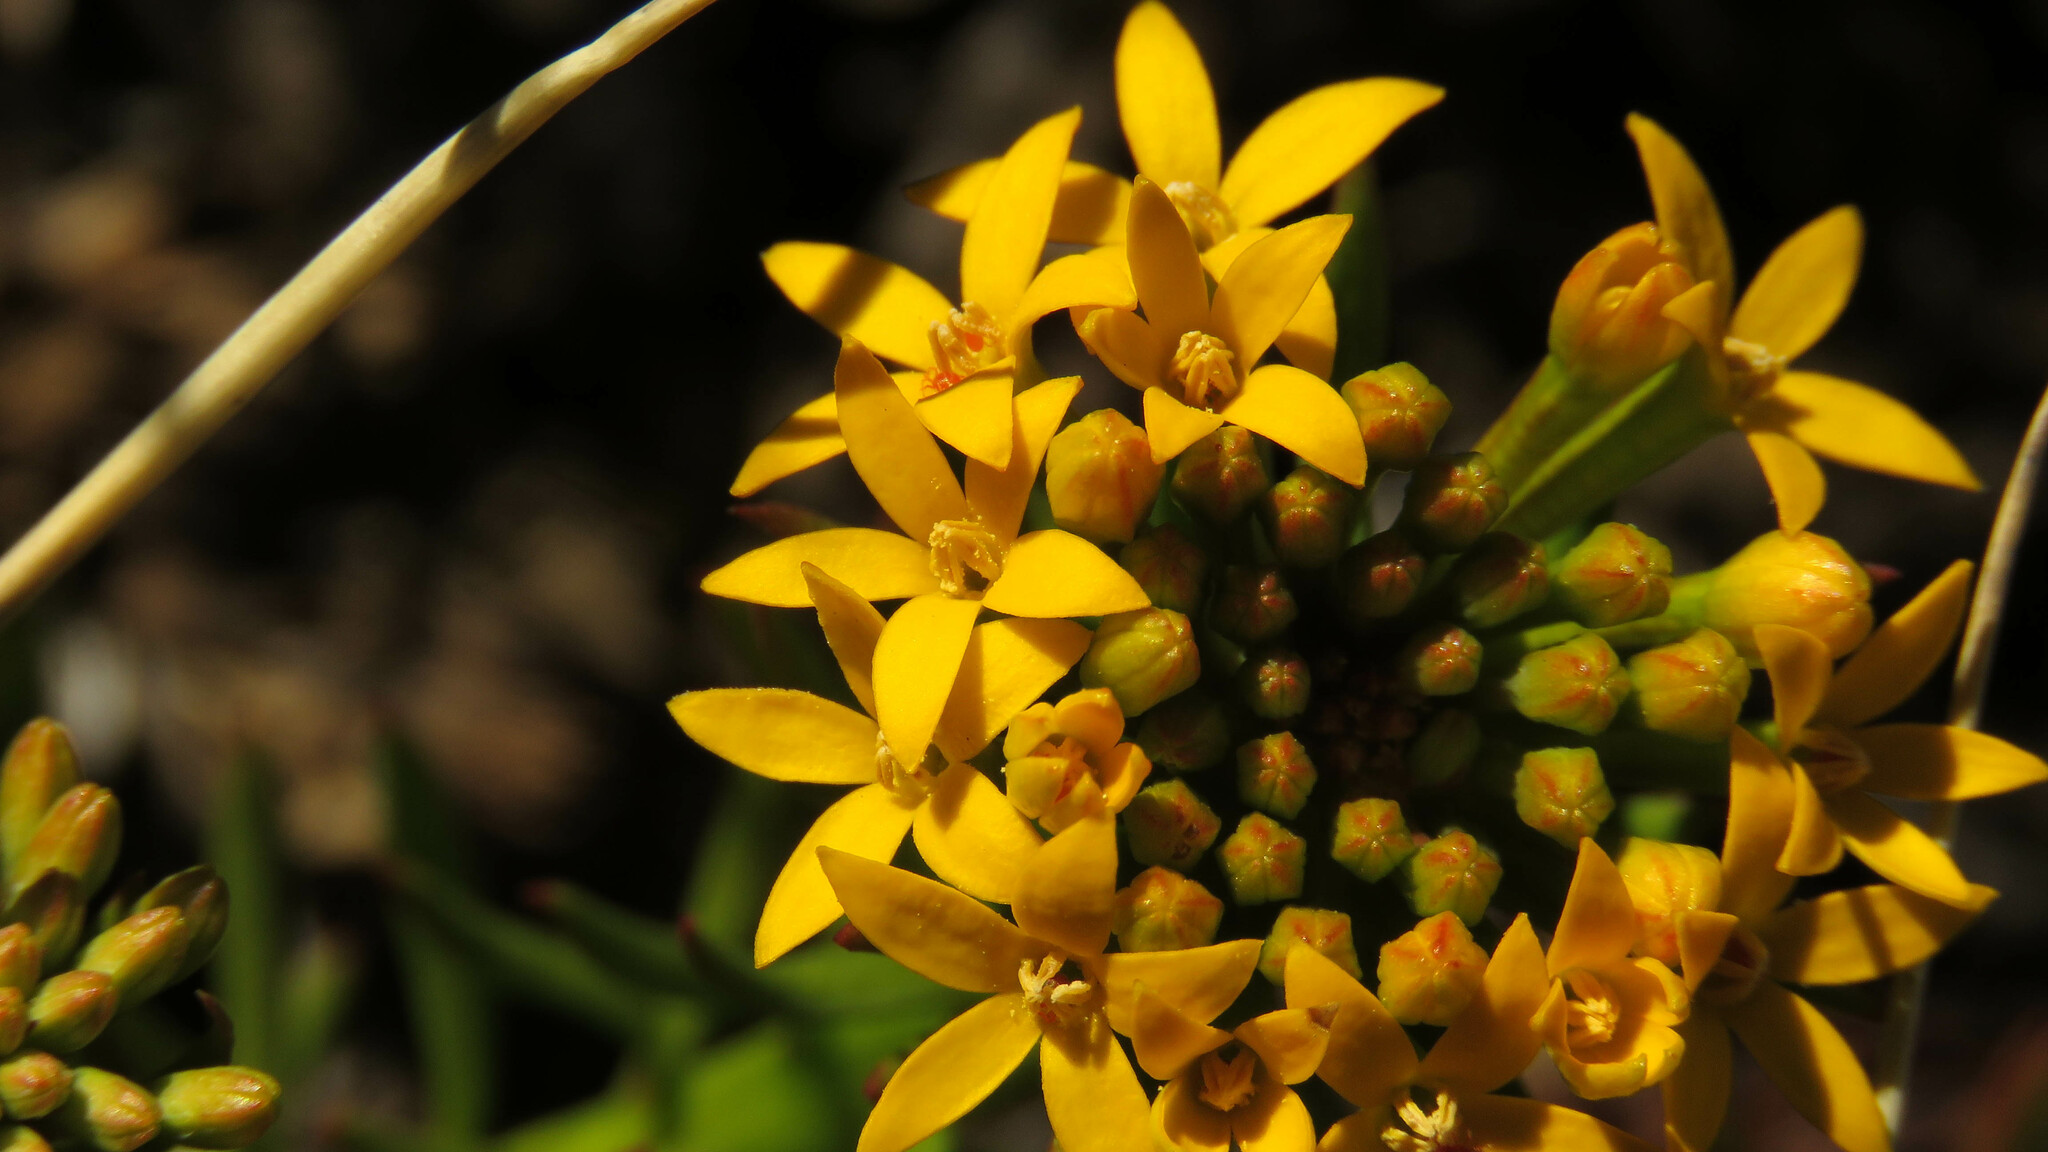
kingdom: Plantae
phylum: Tracheophyta
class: Magnoliopsida
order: Santalales
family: Schoepfiaceae
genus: Quinchamalium
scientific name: Quinchamalium chilense
